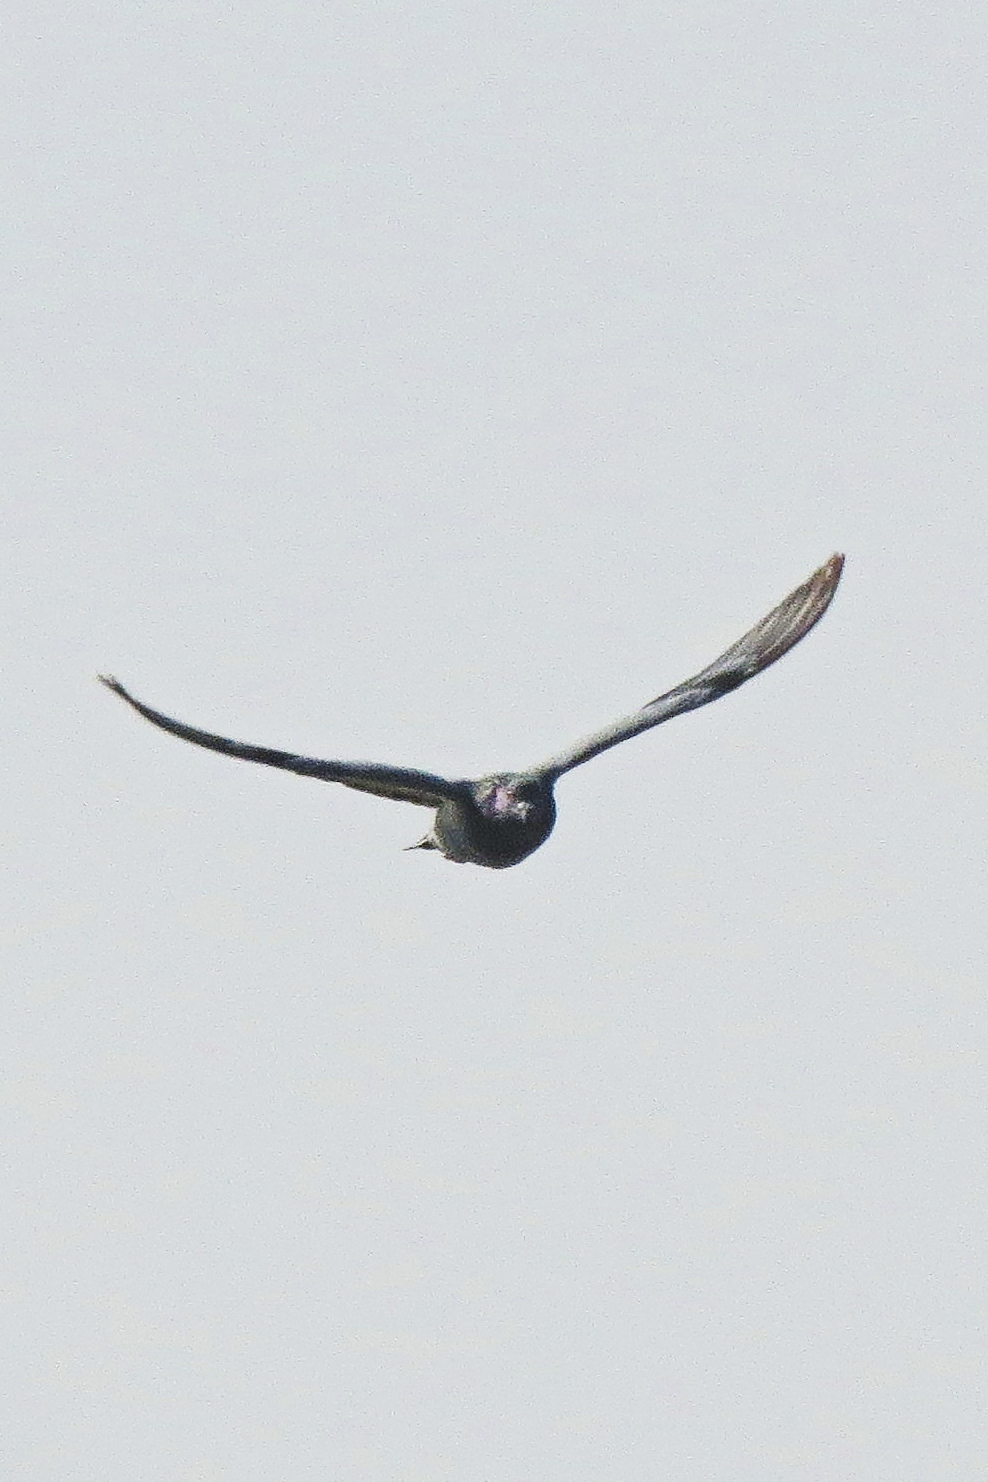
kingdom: Animalia
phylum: Chordata
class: Aves
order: Columbiformes
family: Columbidae
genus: Columba
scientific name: Columba livia
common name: Rock pigeon
